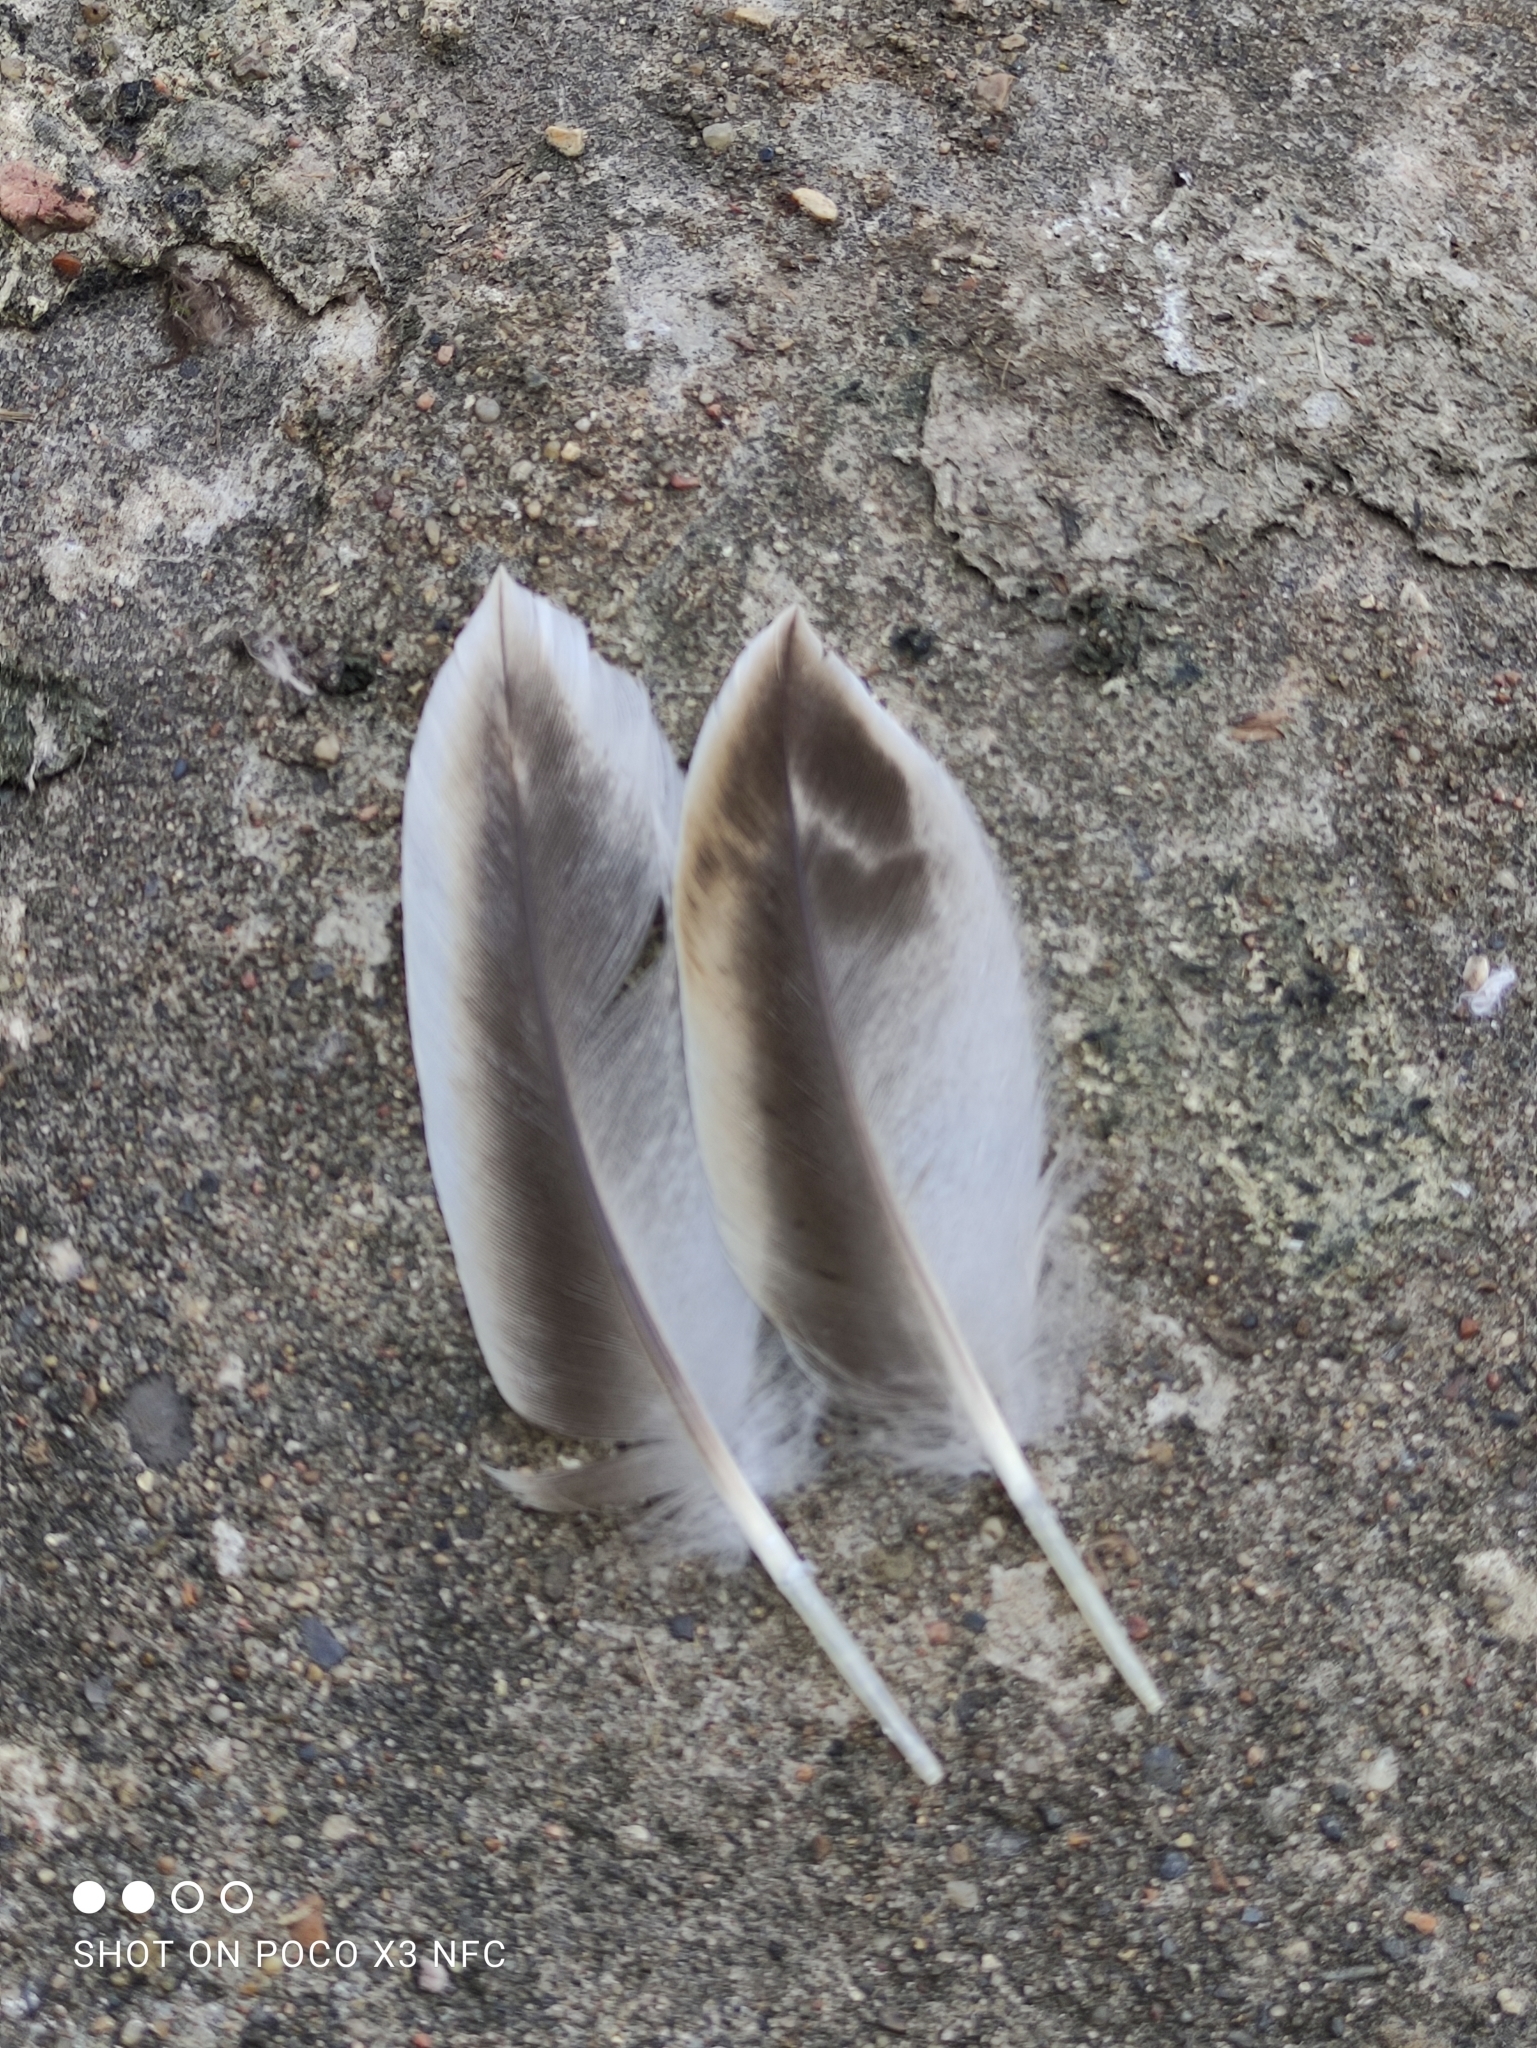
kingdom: Animalia
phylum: Chordata
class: Aves
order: Anseriformes
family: Anatidae
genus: Anas
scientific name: Anas platyrhynchos
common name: Mallard
